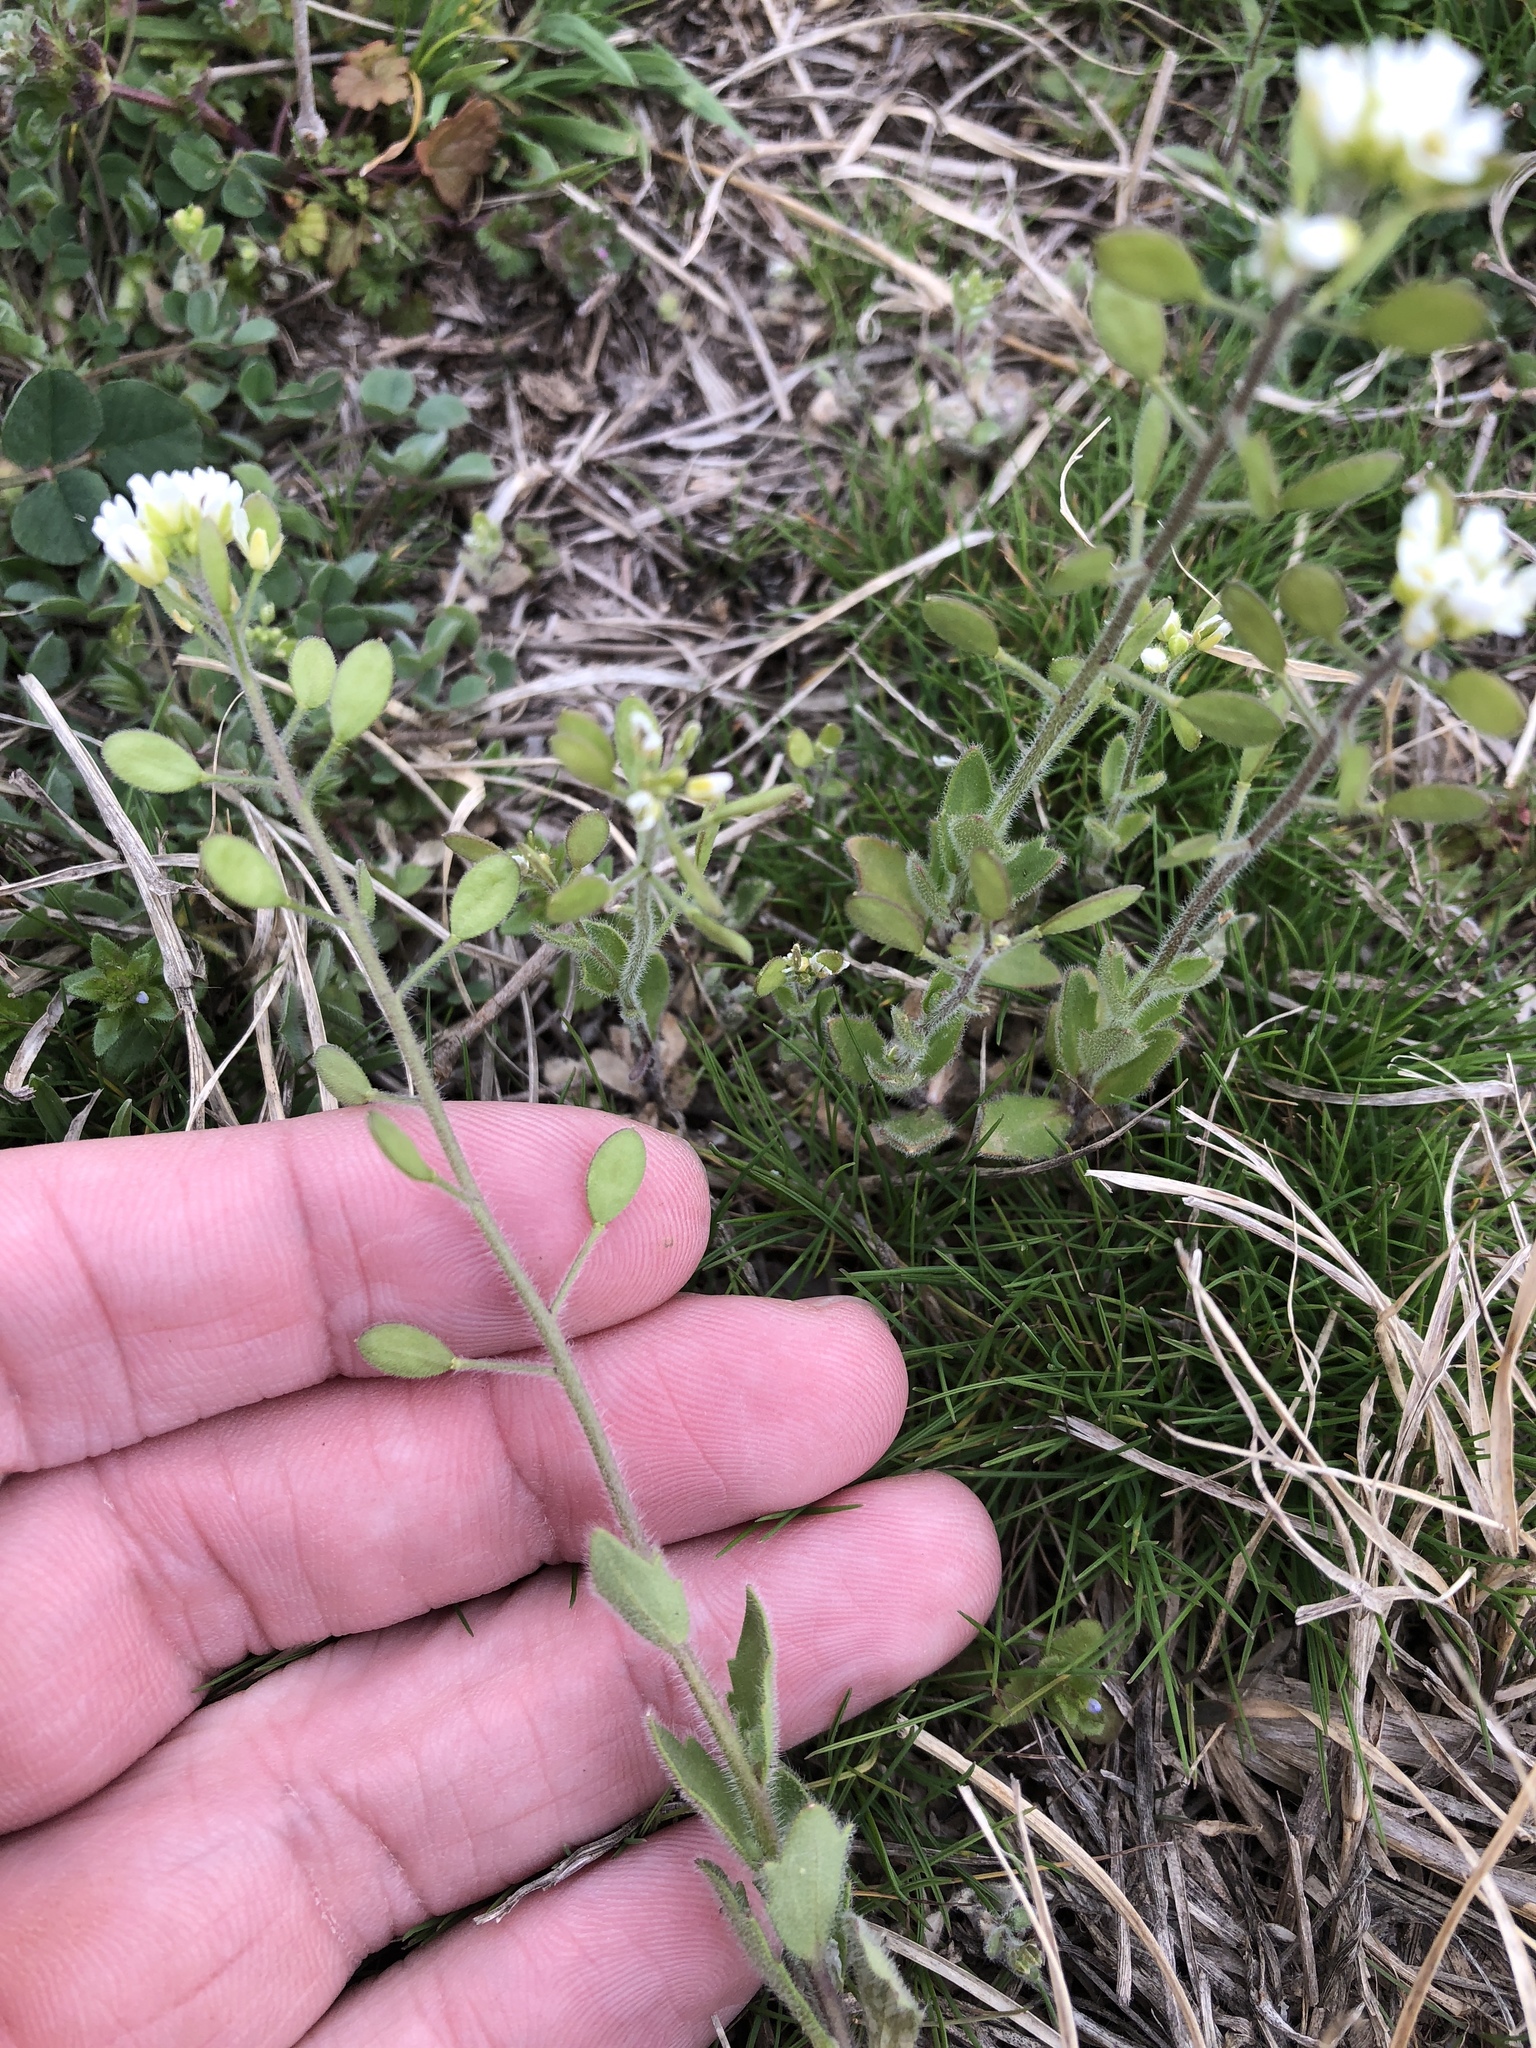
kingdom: Plantae
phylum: Tracheophyta
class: Magnoliopsida
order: Brassicales
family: Brassicaceae
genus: Tomostima
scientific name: Tomostima platycarpa
